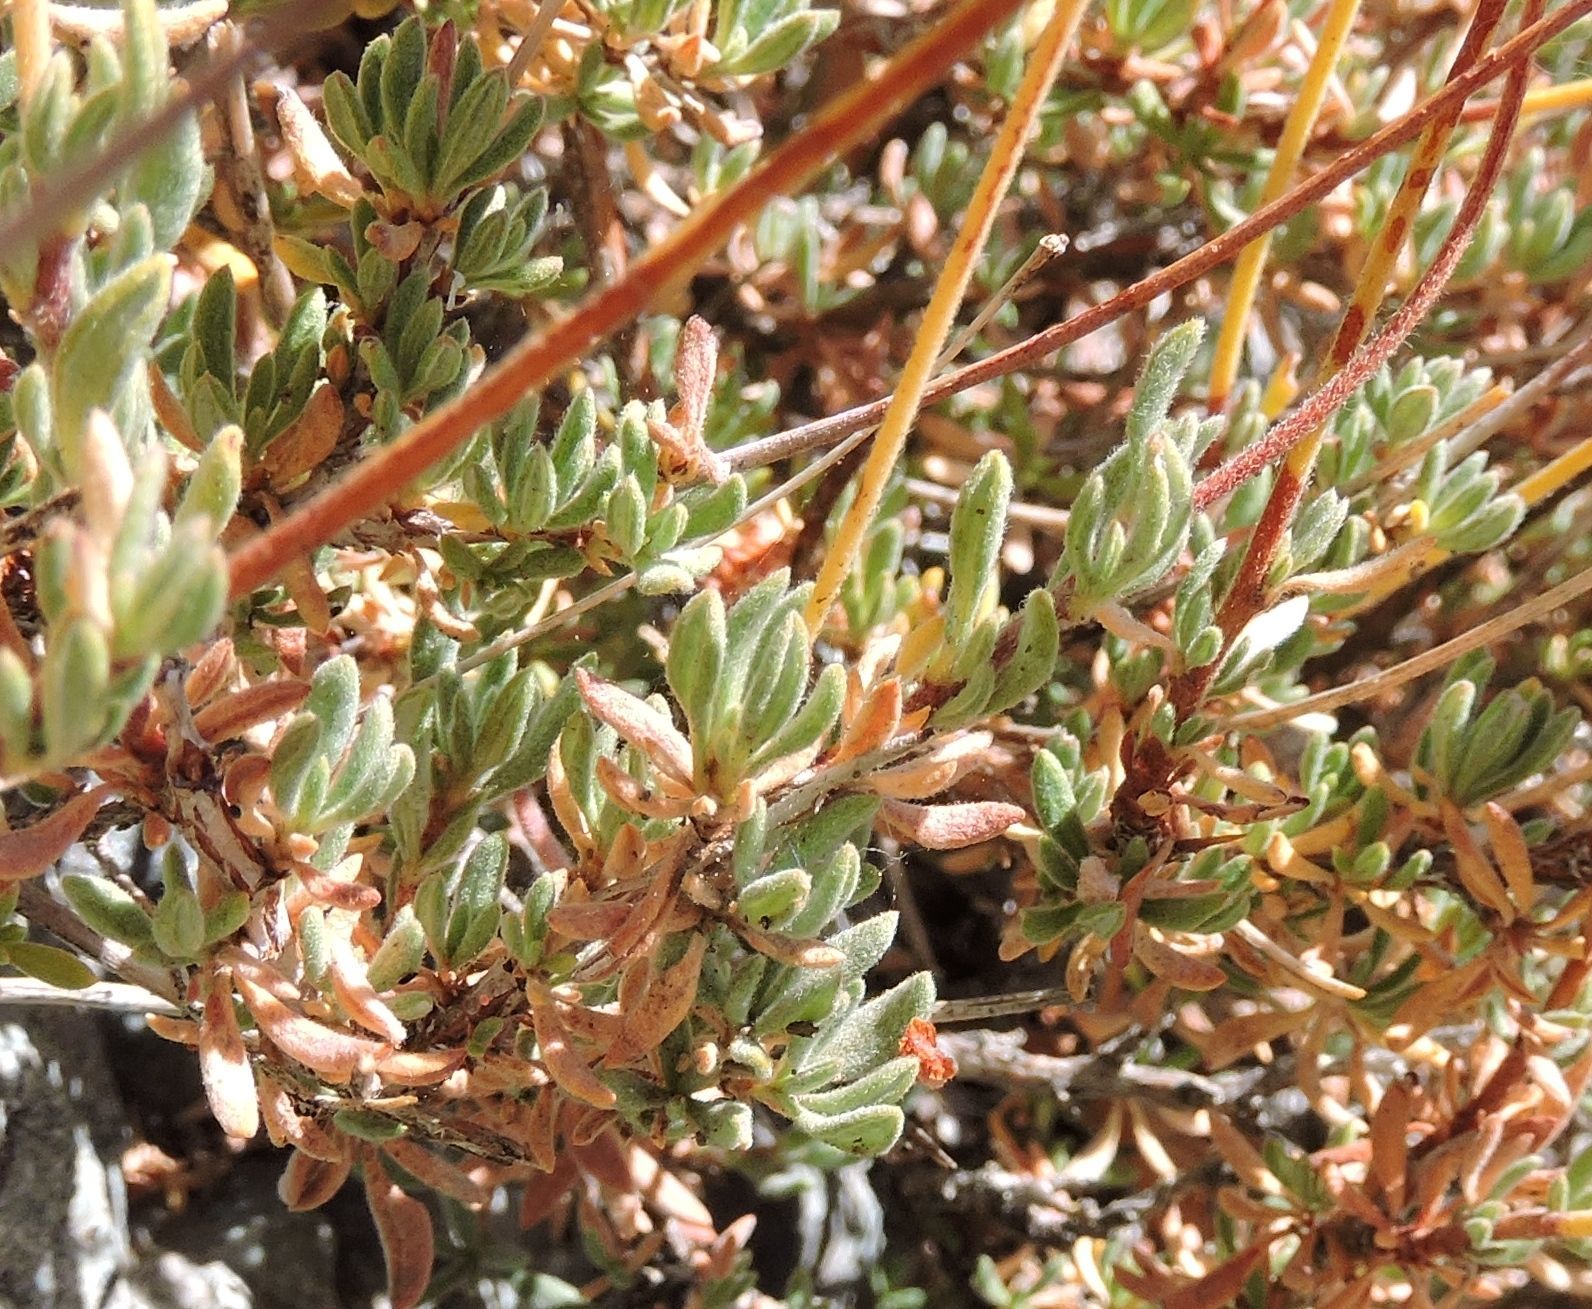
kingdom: Plantae
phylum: Tracheophyta
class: Magnoliopsida
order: Caryophyllales
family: Polygonaceae
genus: Eriogonum
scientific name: Eriogonum fasciculatum
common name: California wild buckwheat
